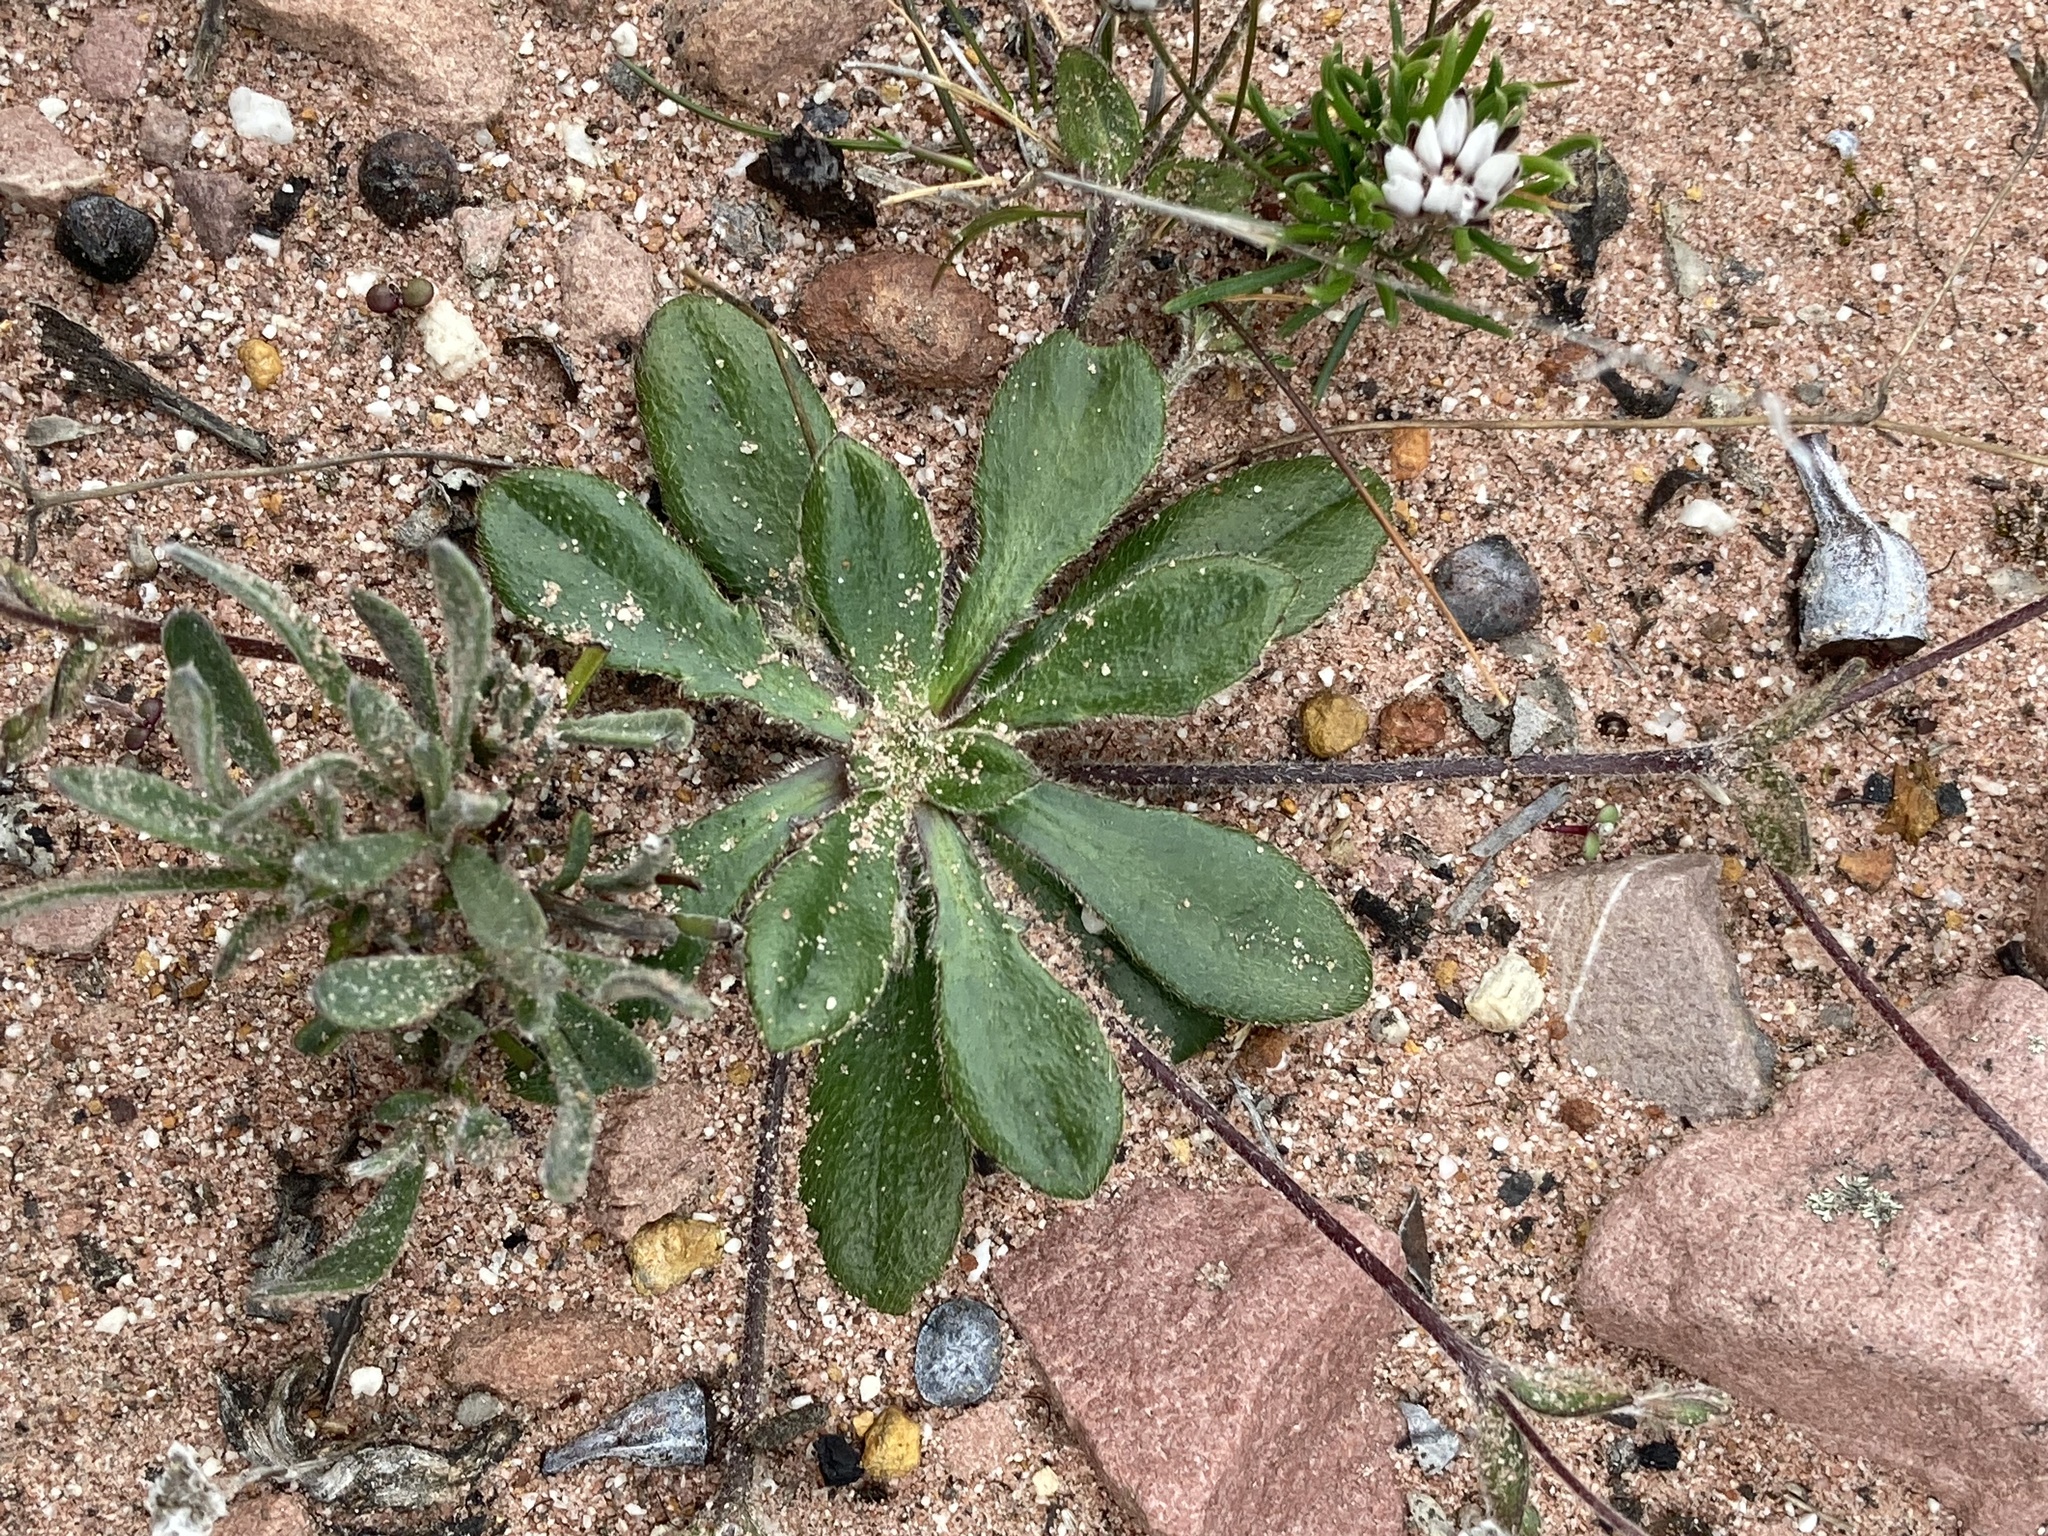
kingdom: Plantae
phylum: Tracheophyta
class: Magnoliopsida
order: Asterales
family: Goodeniaceae
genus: Goodenia
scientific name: Goodenia trinervis
